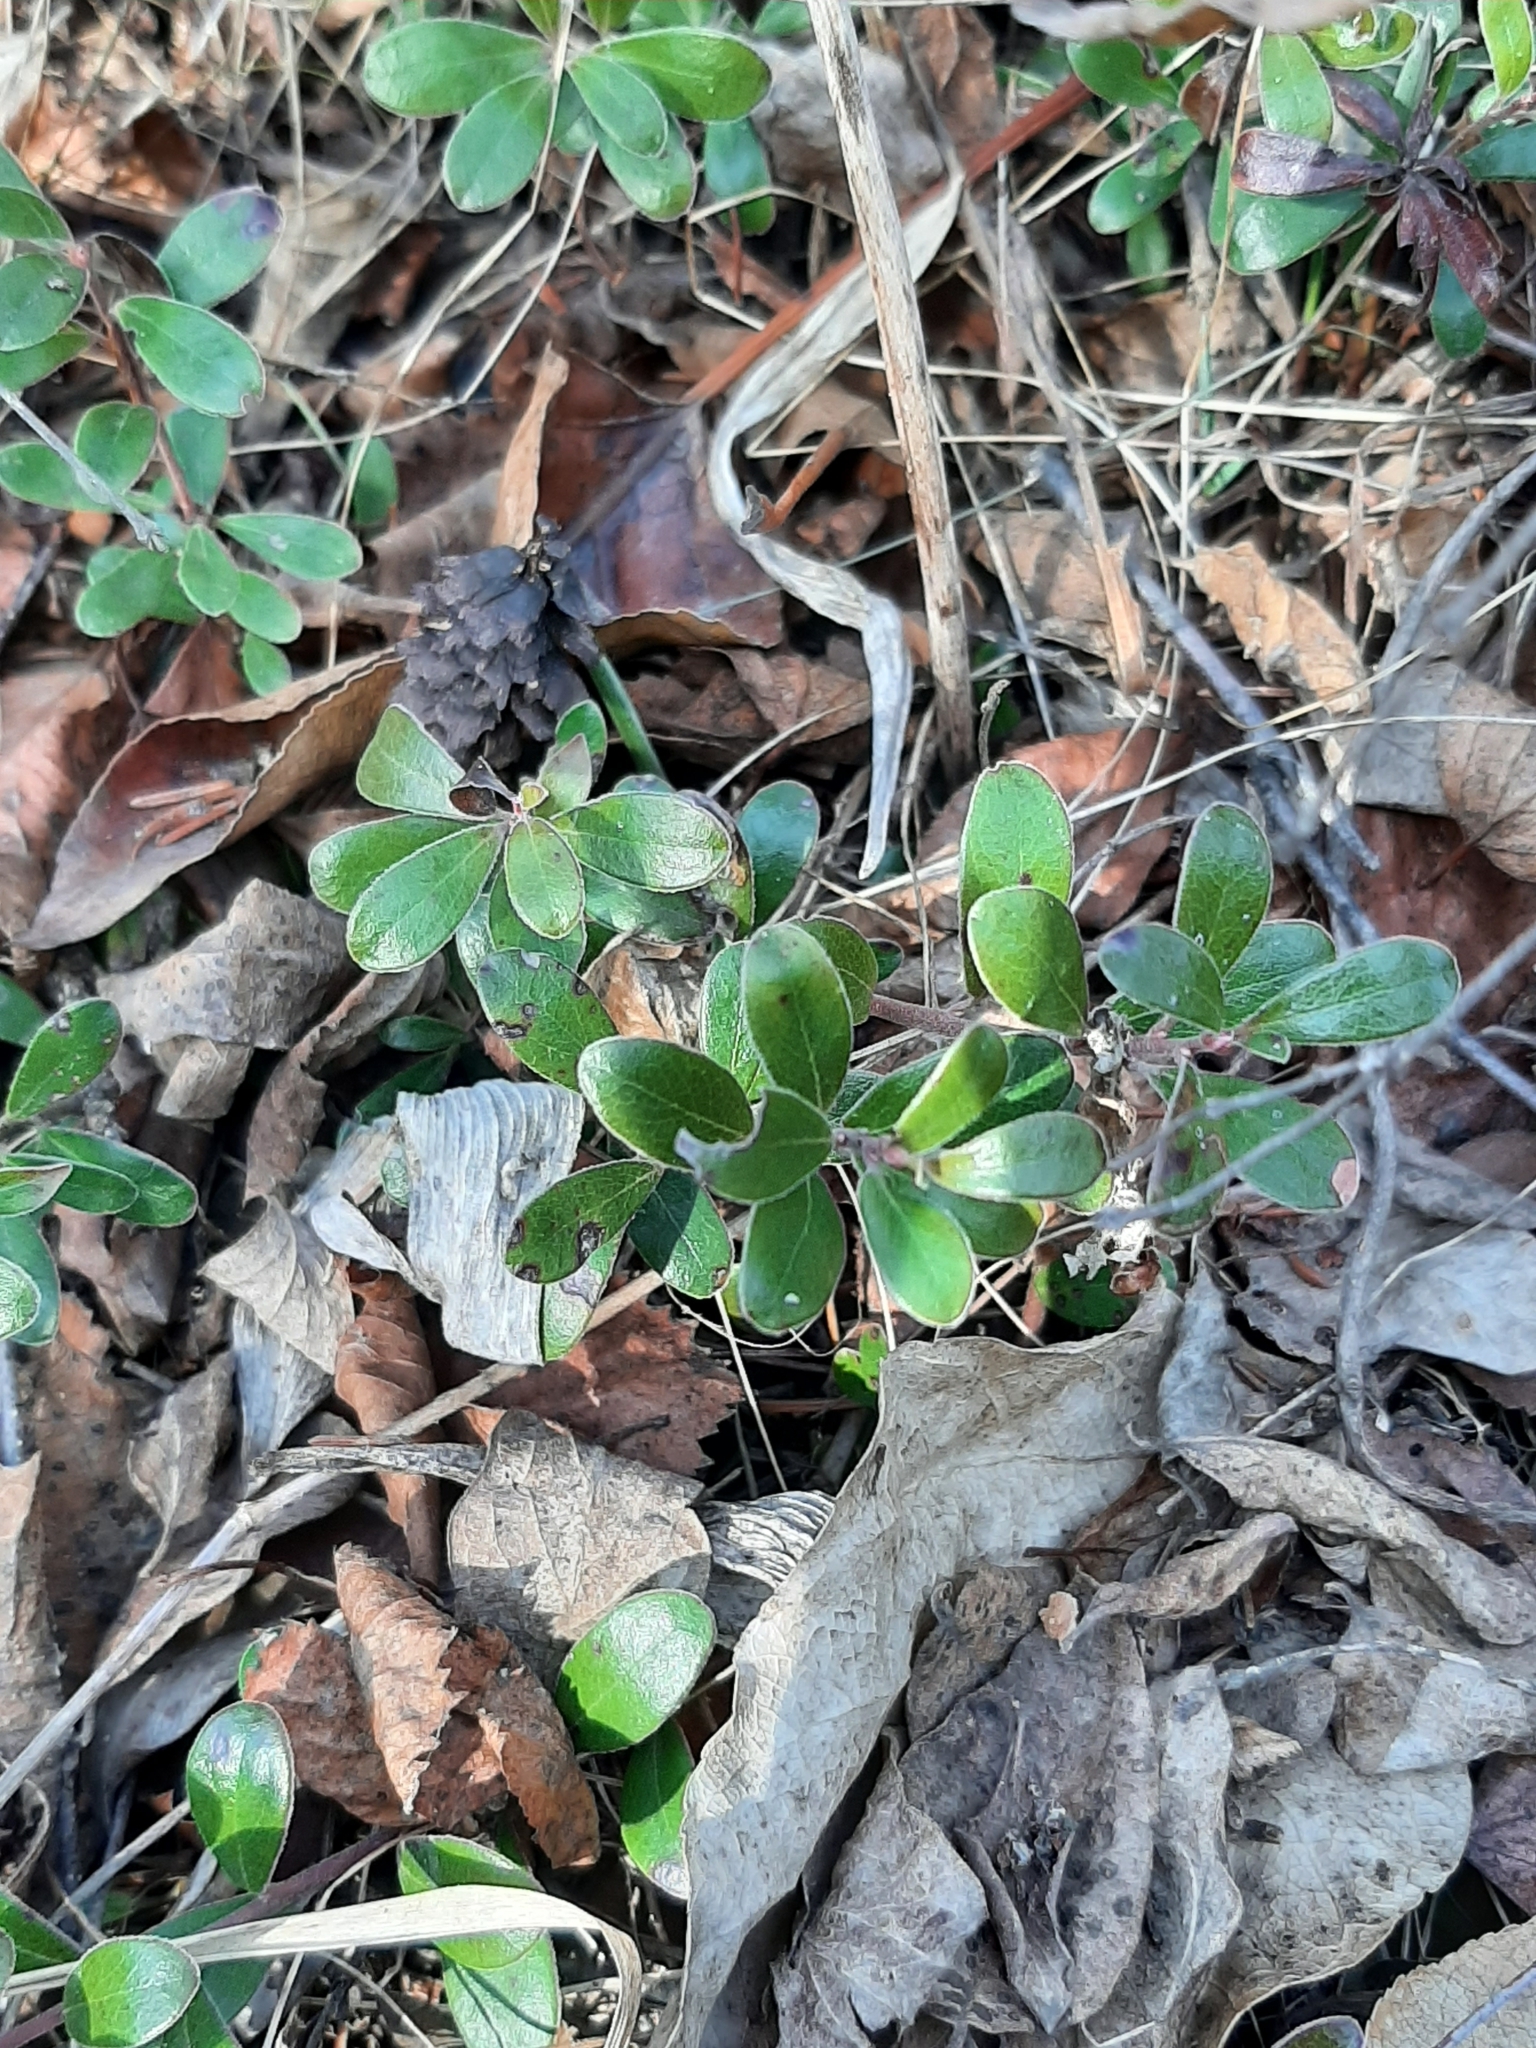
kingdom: Plantae
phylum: Tracheophyta
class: Magnoliopsida
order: Ericales
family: Ericaceae
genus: Arctostaphylos
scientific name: Arctostaphylos uva-ursi
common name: Bearberry
